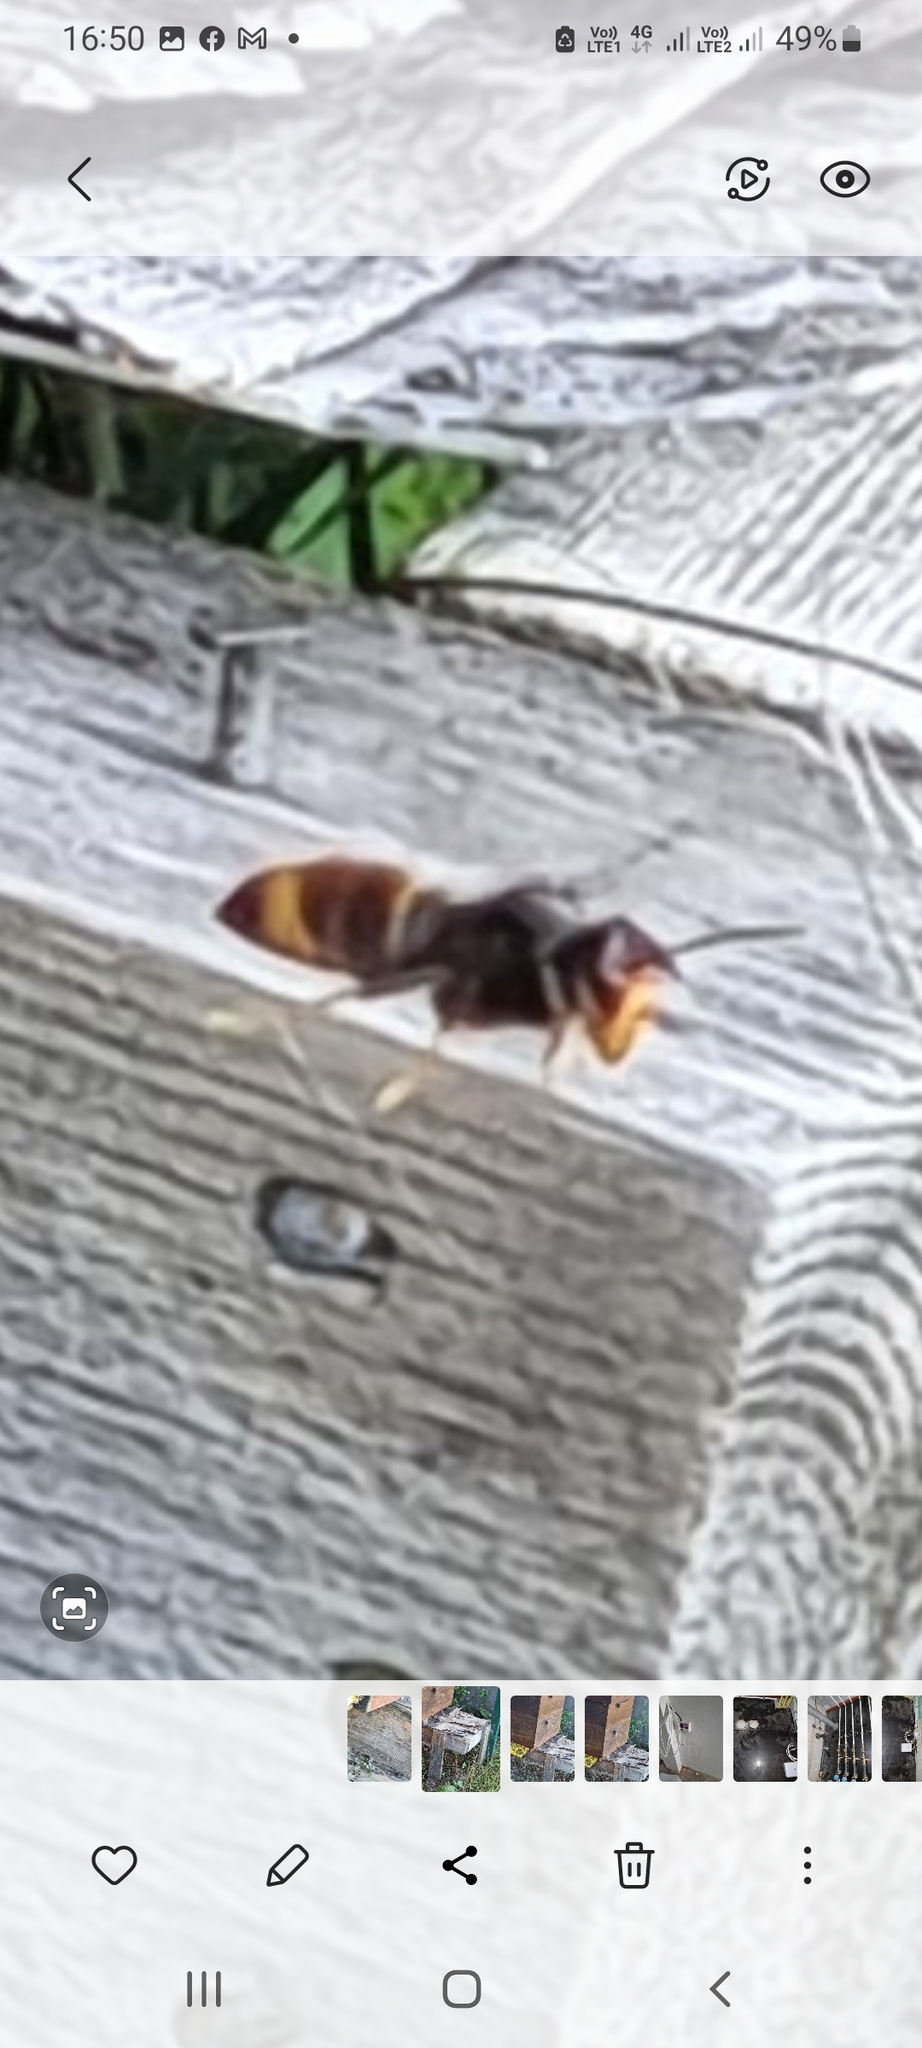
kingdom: Animalia
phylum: Arthropoda
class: Insecta
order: Hymenoptera
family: Vespidae
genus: Vespa
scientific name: Vespa velutina
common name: Asian hornet
